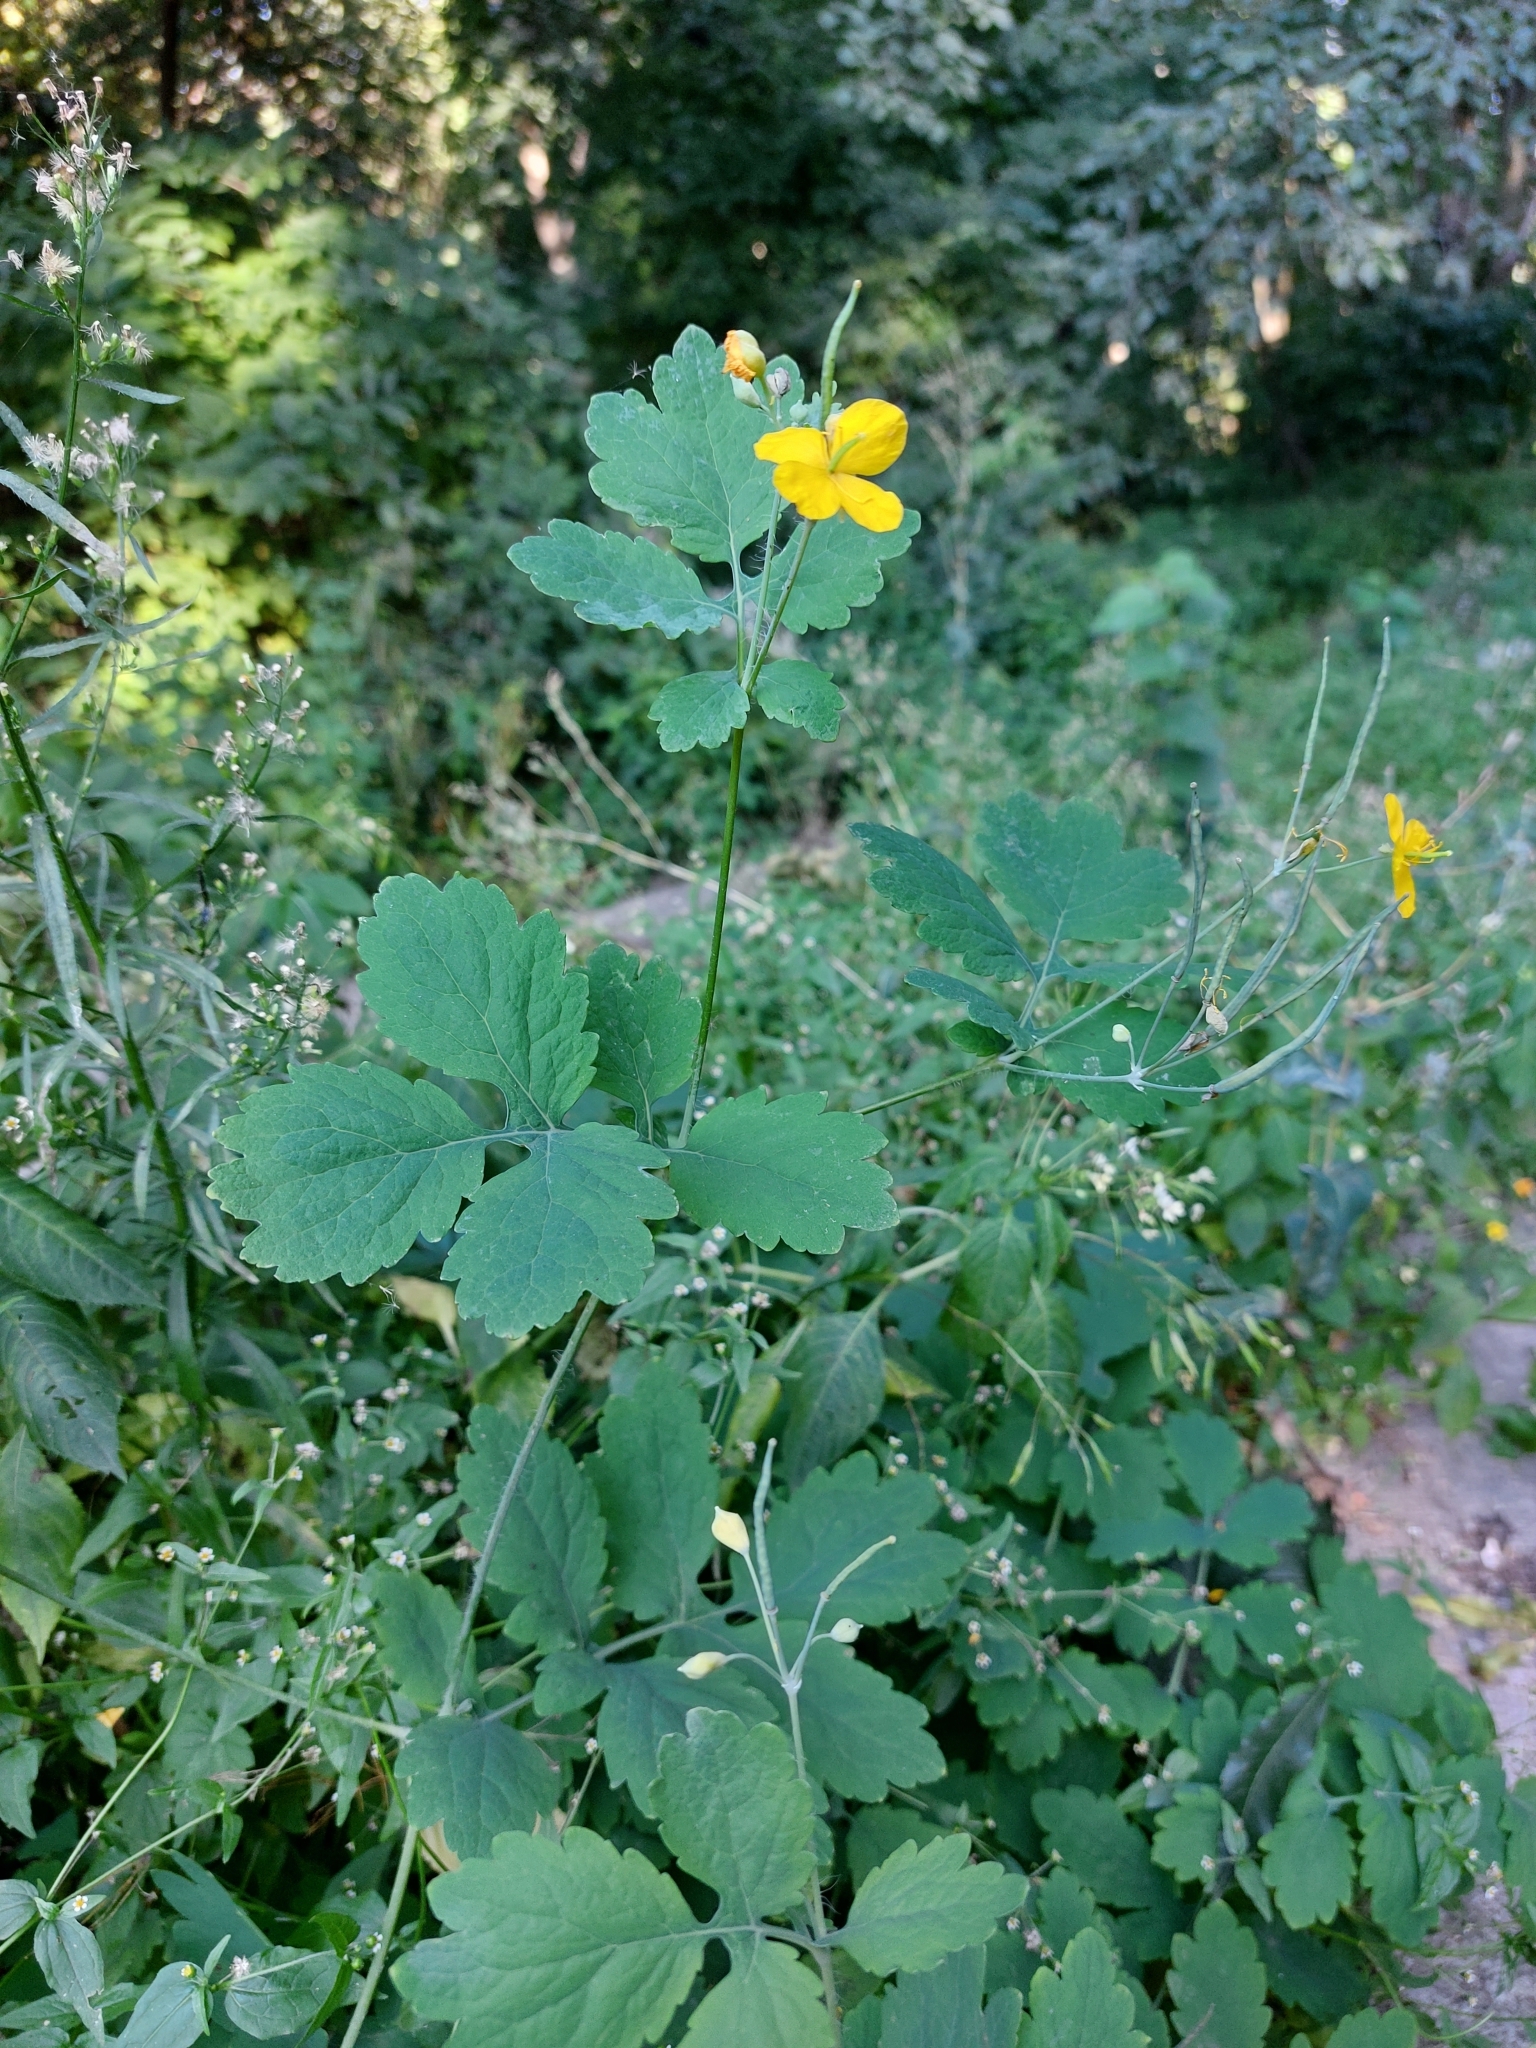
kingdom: Plantae
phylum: Tracheophyta
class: Magnoliopsida
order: Ranunculales
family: Papaveraceae
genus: Chelidonium
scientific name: Chelidonium majus
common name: Greater celandine
